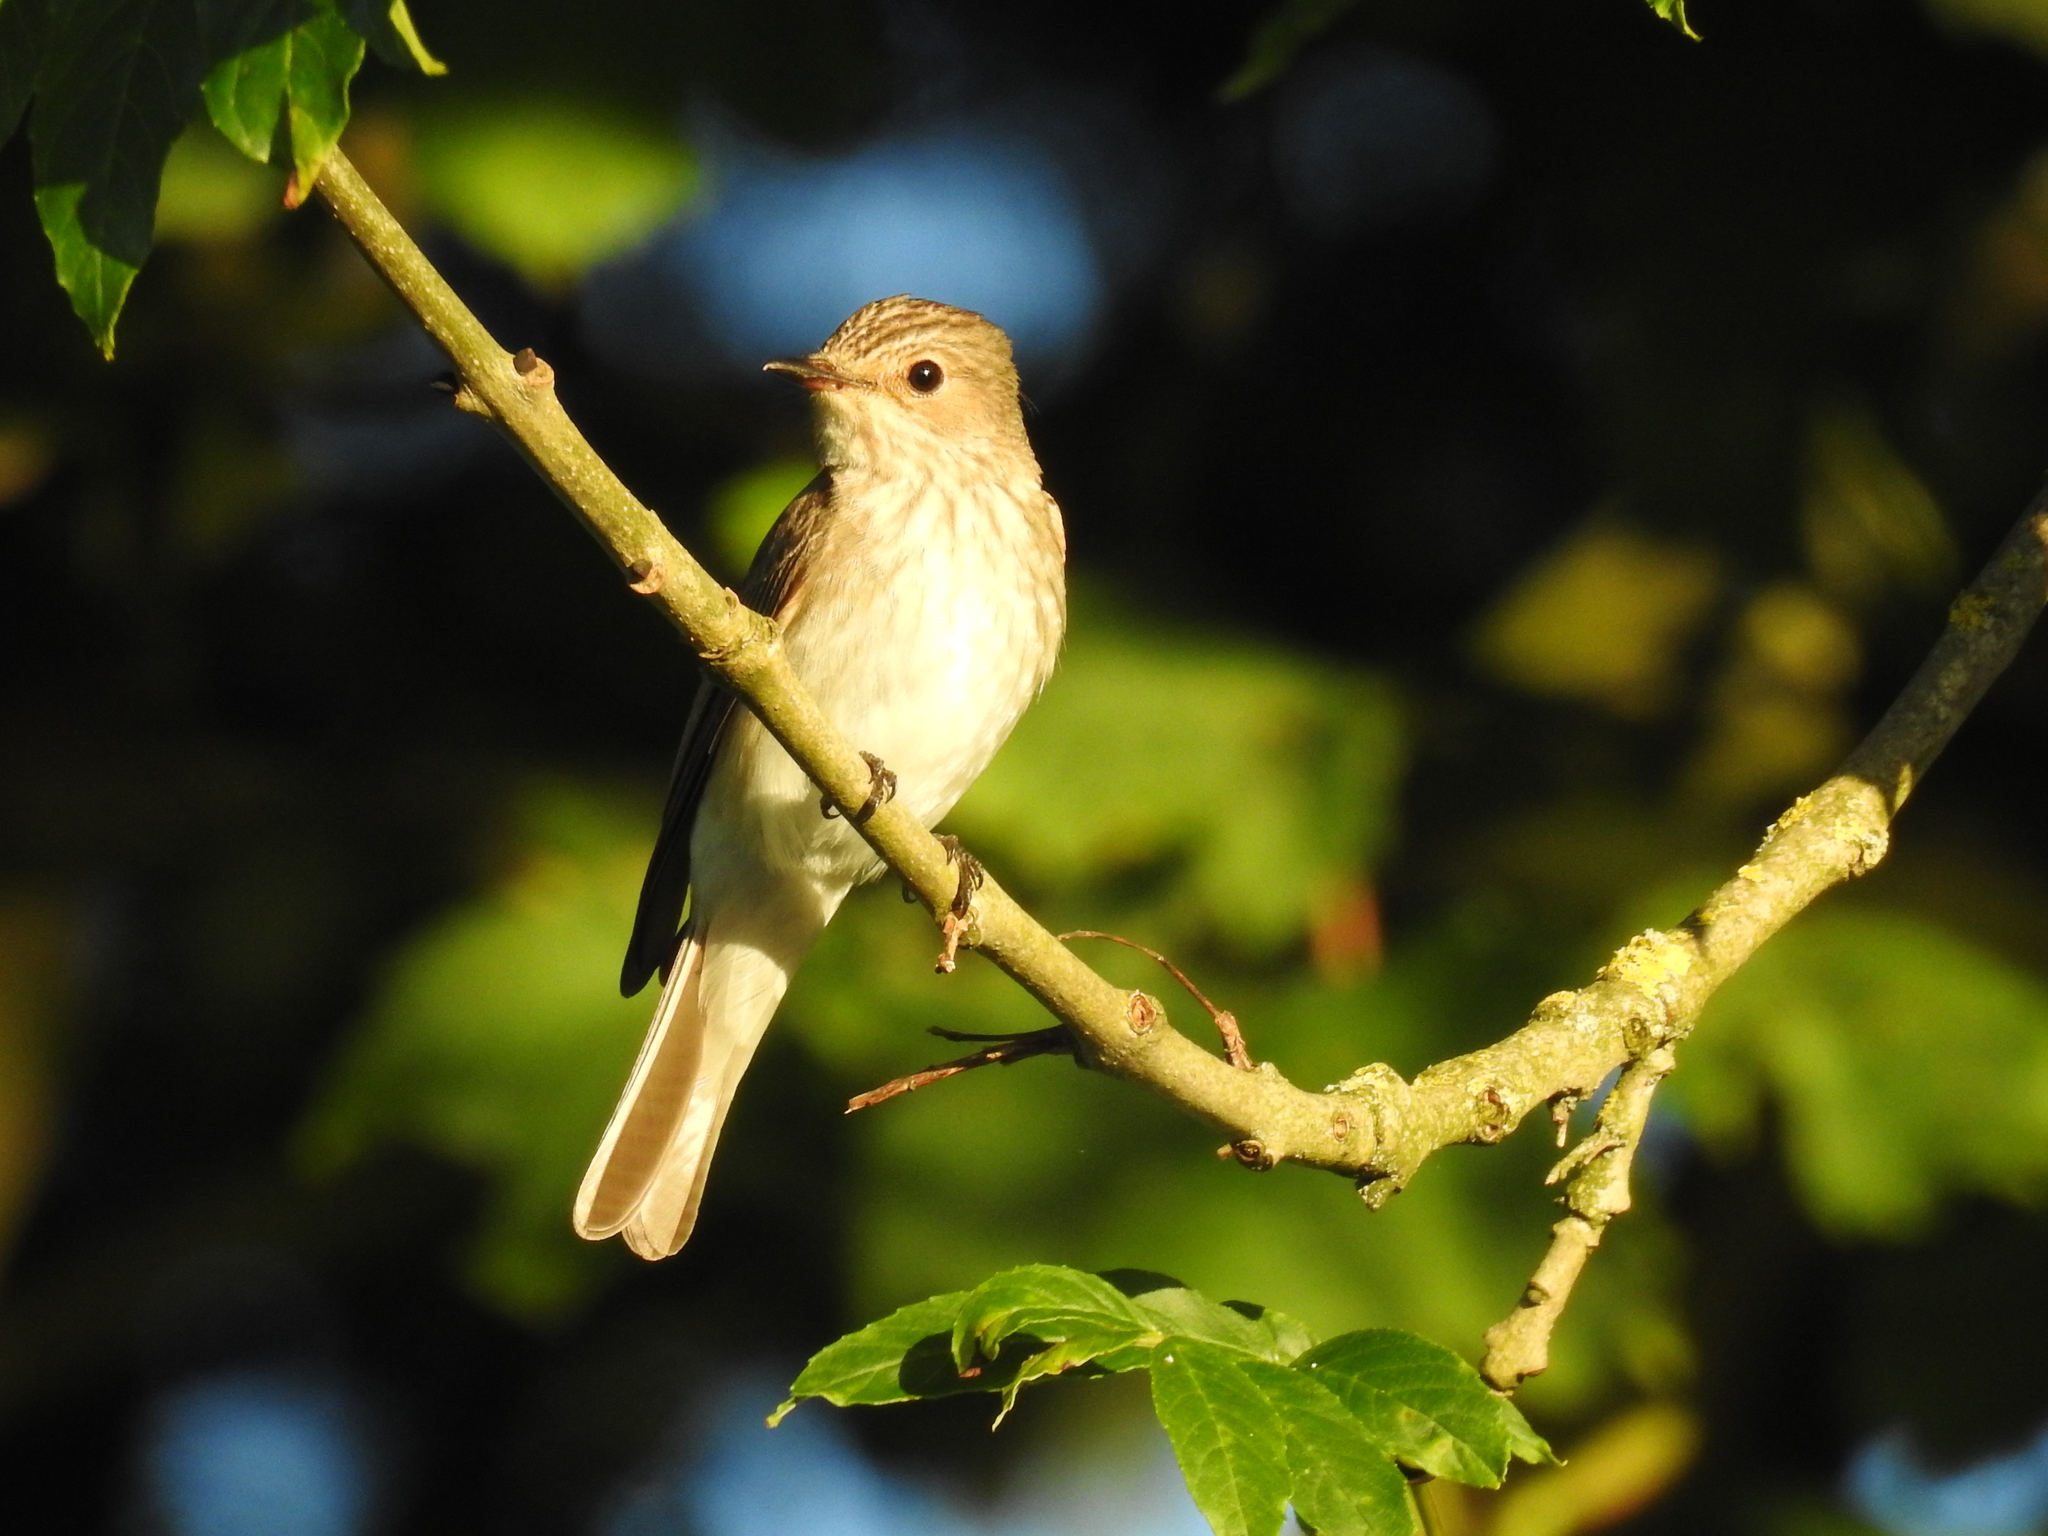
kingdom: Animalia
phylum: Chordata
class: Aves
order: Passeriformes
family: Muscicapidae
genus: Muscicapa
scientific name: Muscicapa striata
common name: Spotted flycatcher
